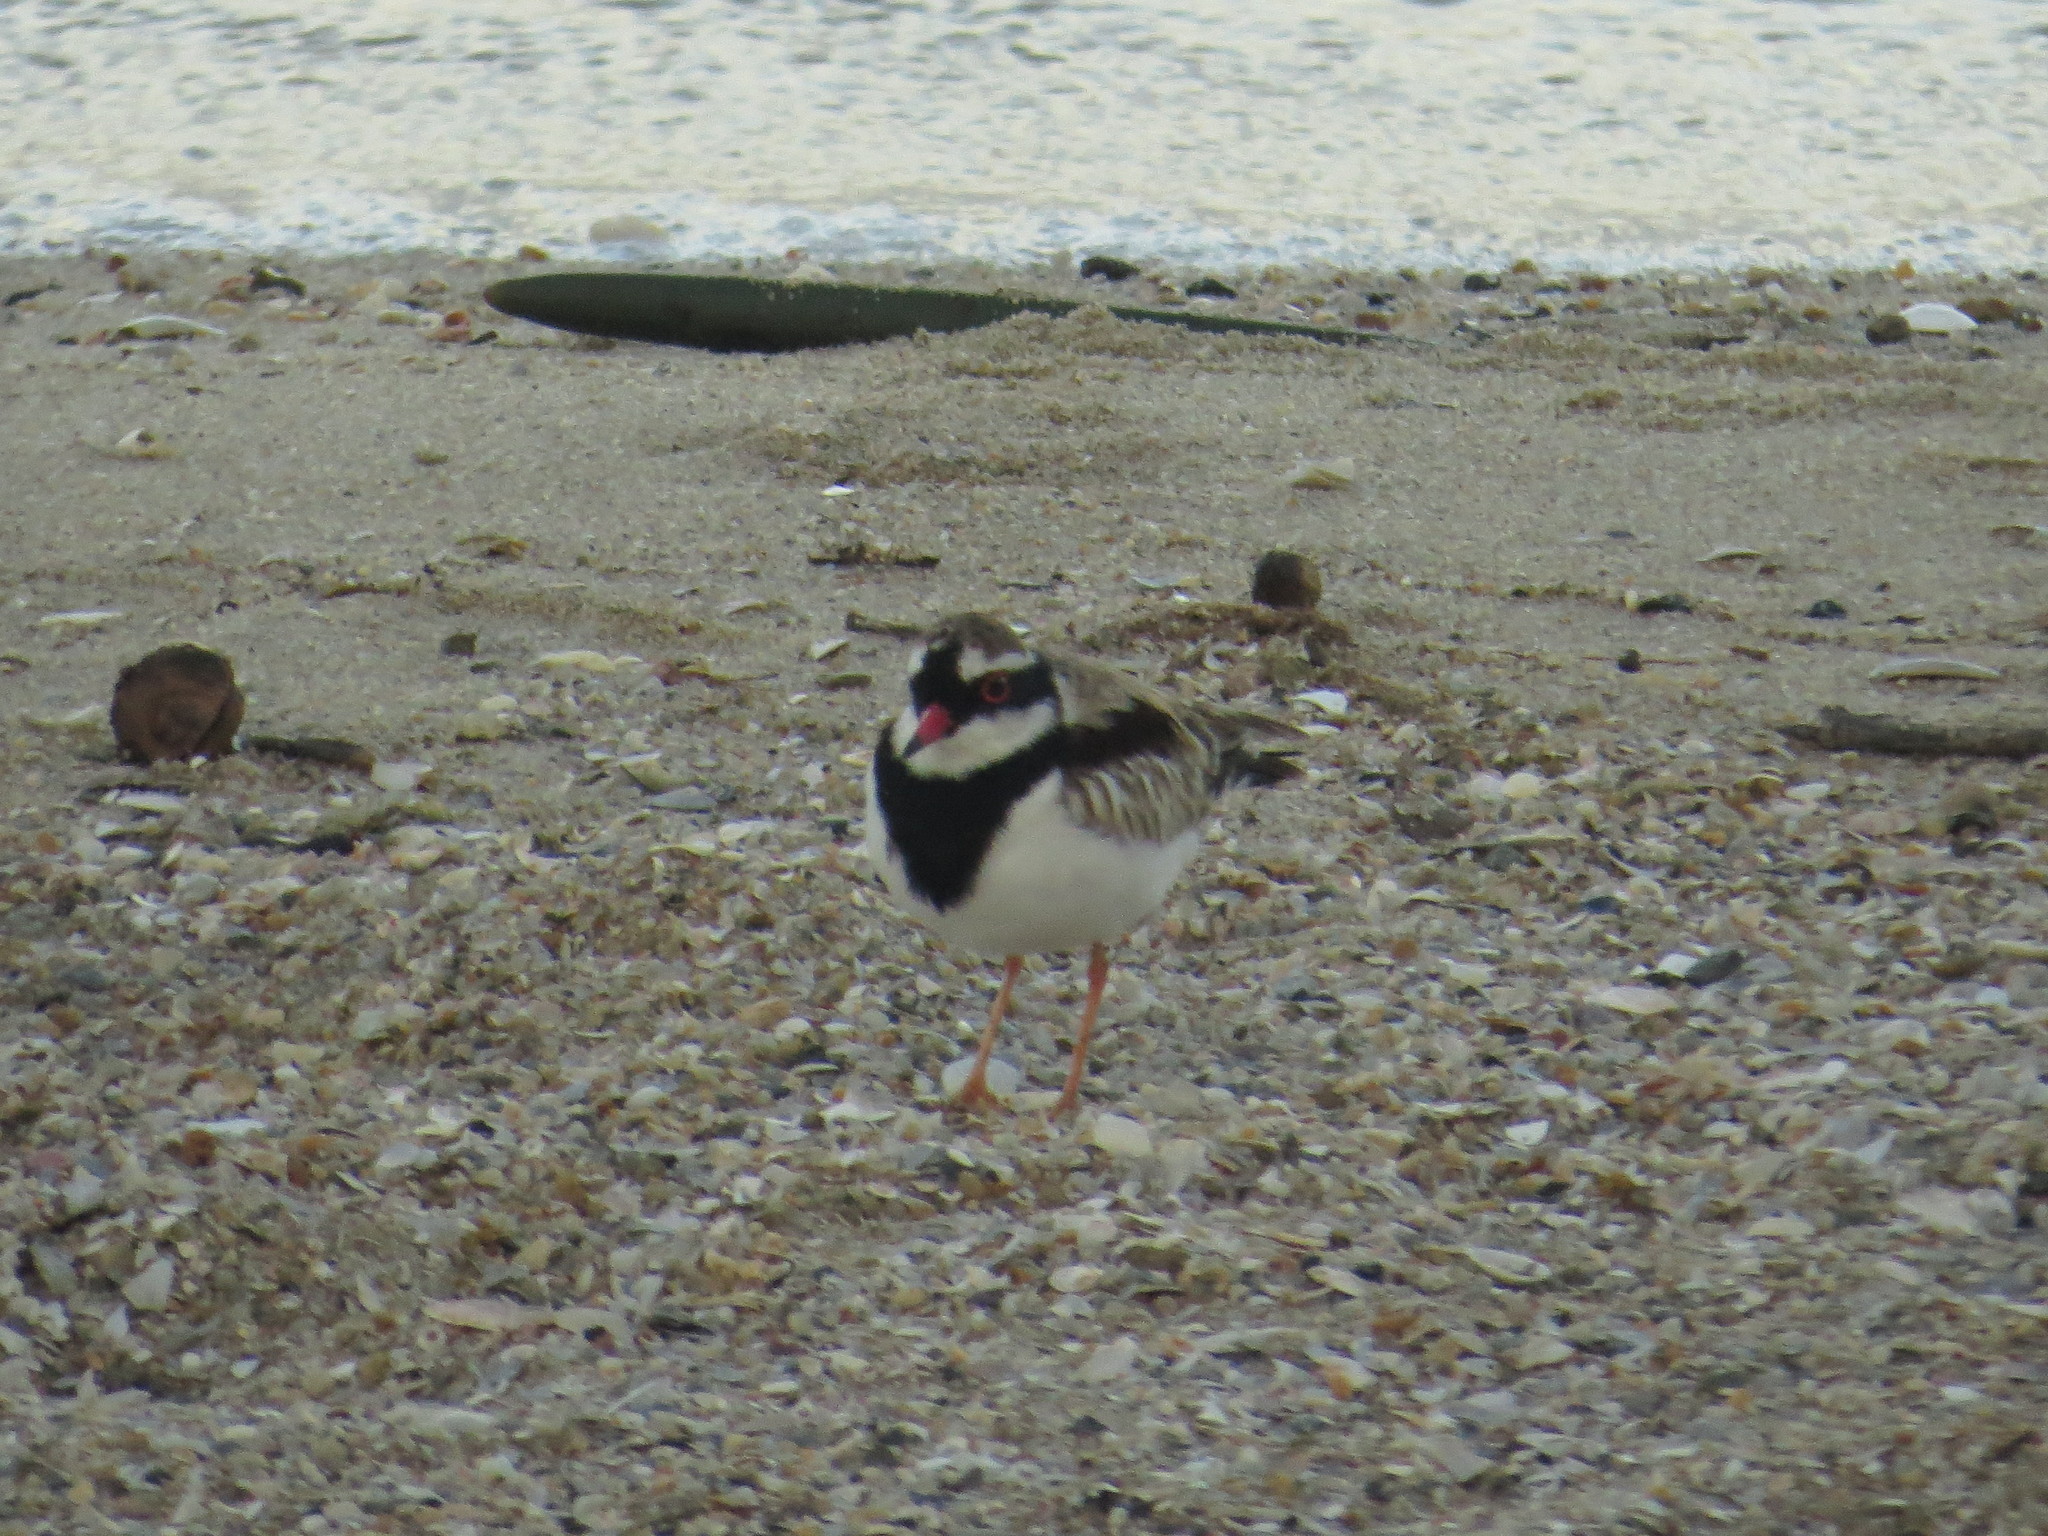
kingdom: Animalia
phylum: Chordata
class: Aves
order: Charadriiformes
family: Charadriidae
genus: Elseyornis
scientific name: Elseyornis melanops
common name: Black-fronted dotterel
